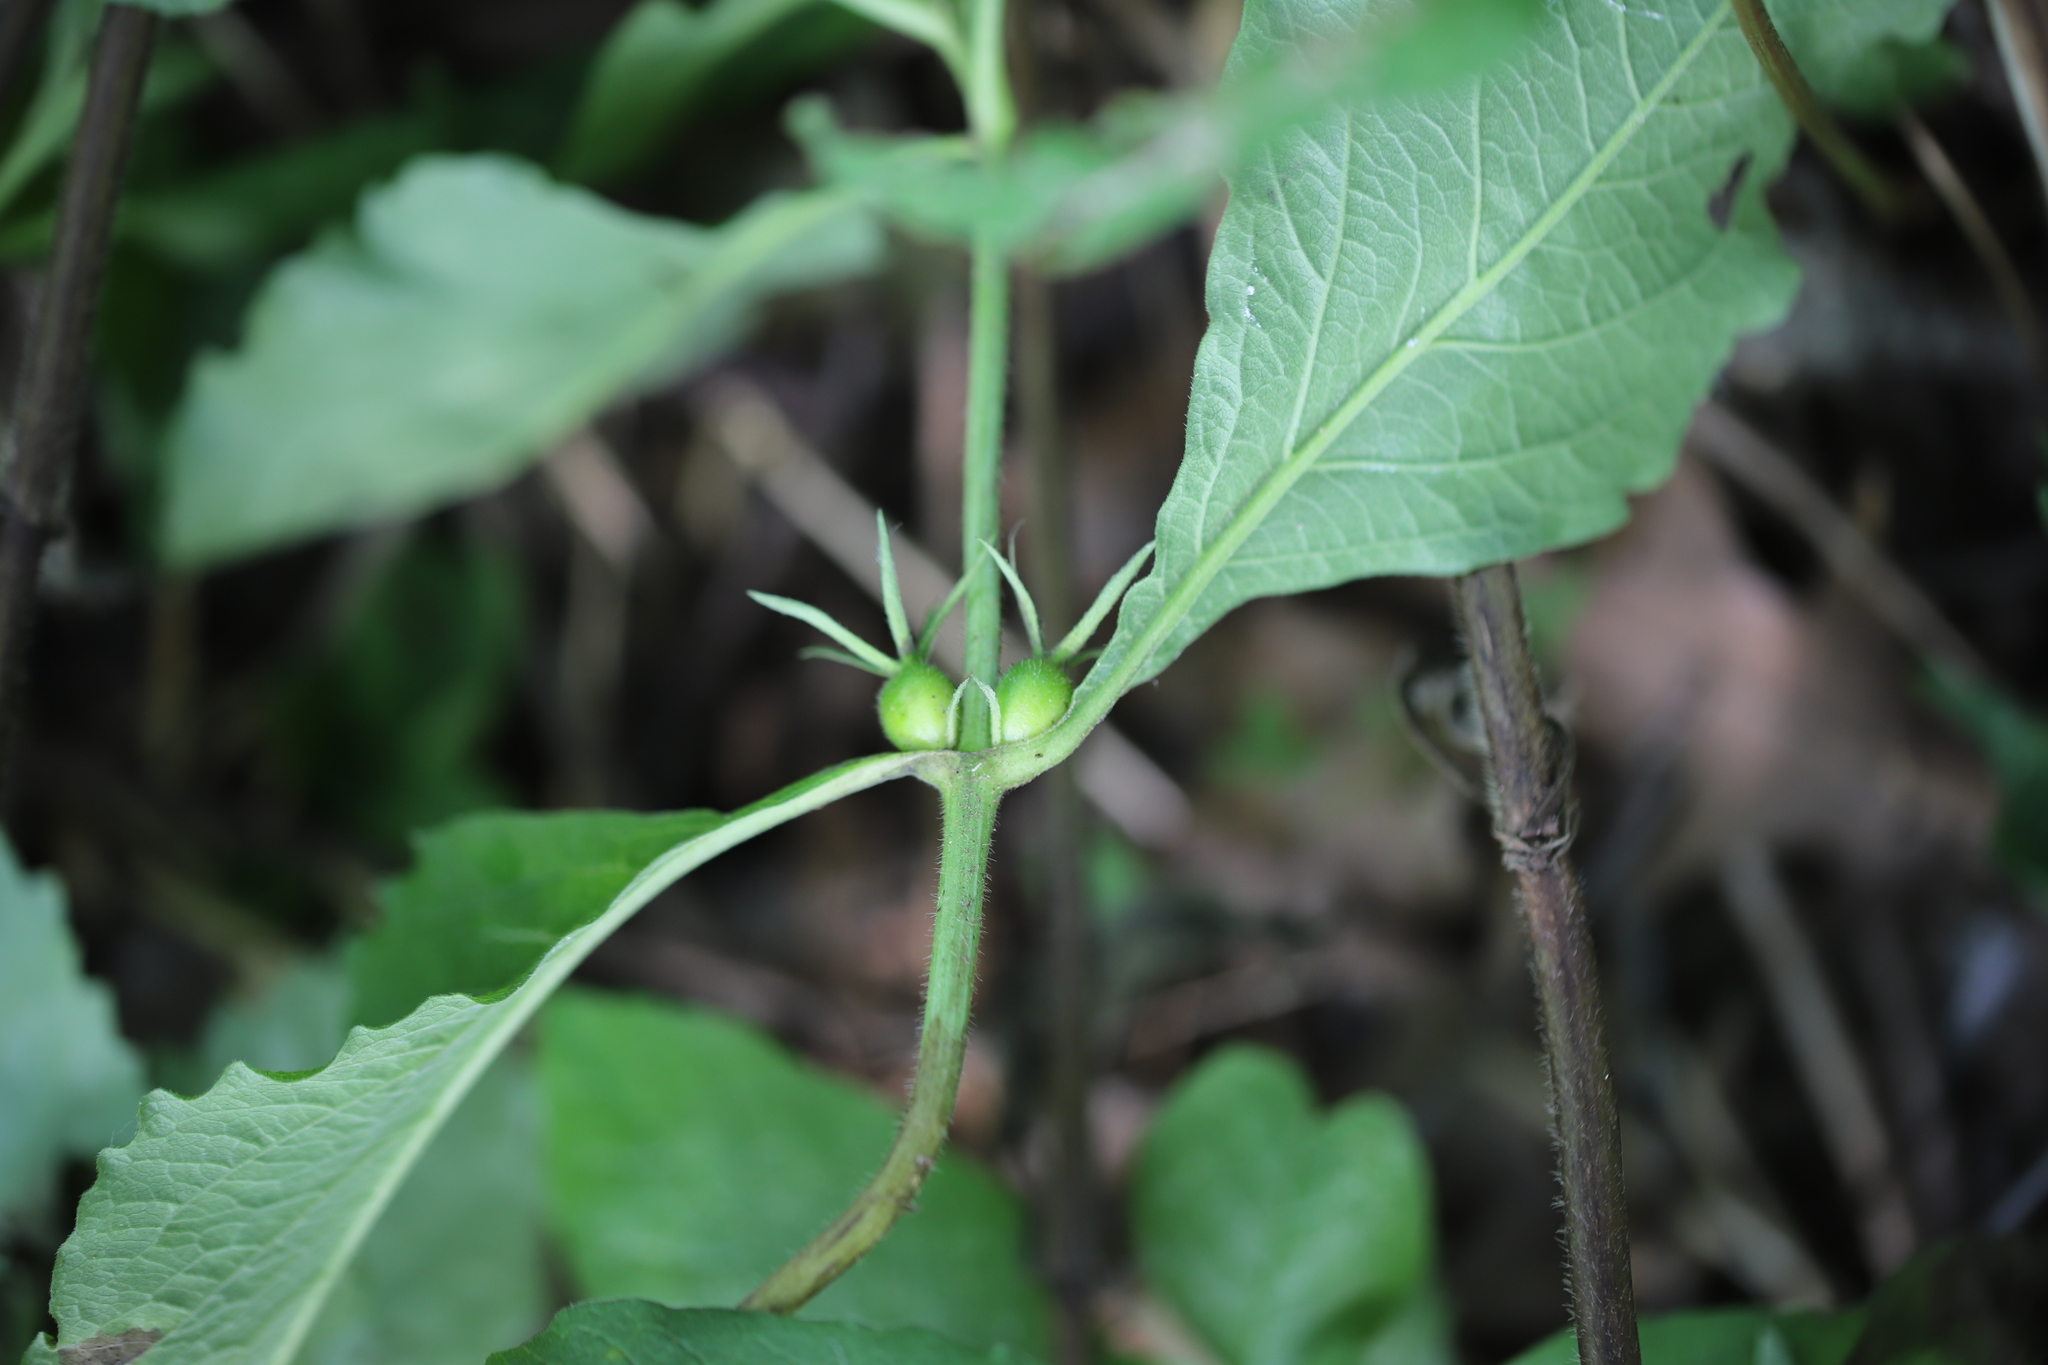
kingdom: Plantae
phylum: Tracheophyta
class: Magnoliopsida
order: Dipsacales
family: Caprifoliaceae
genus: Triosteum
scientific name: Triosteum aurantiacum
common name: Coffee tinker's-weed
